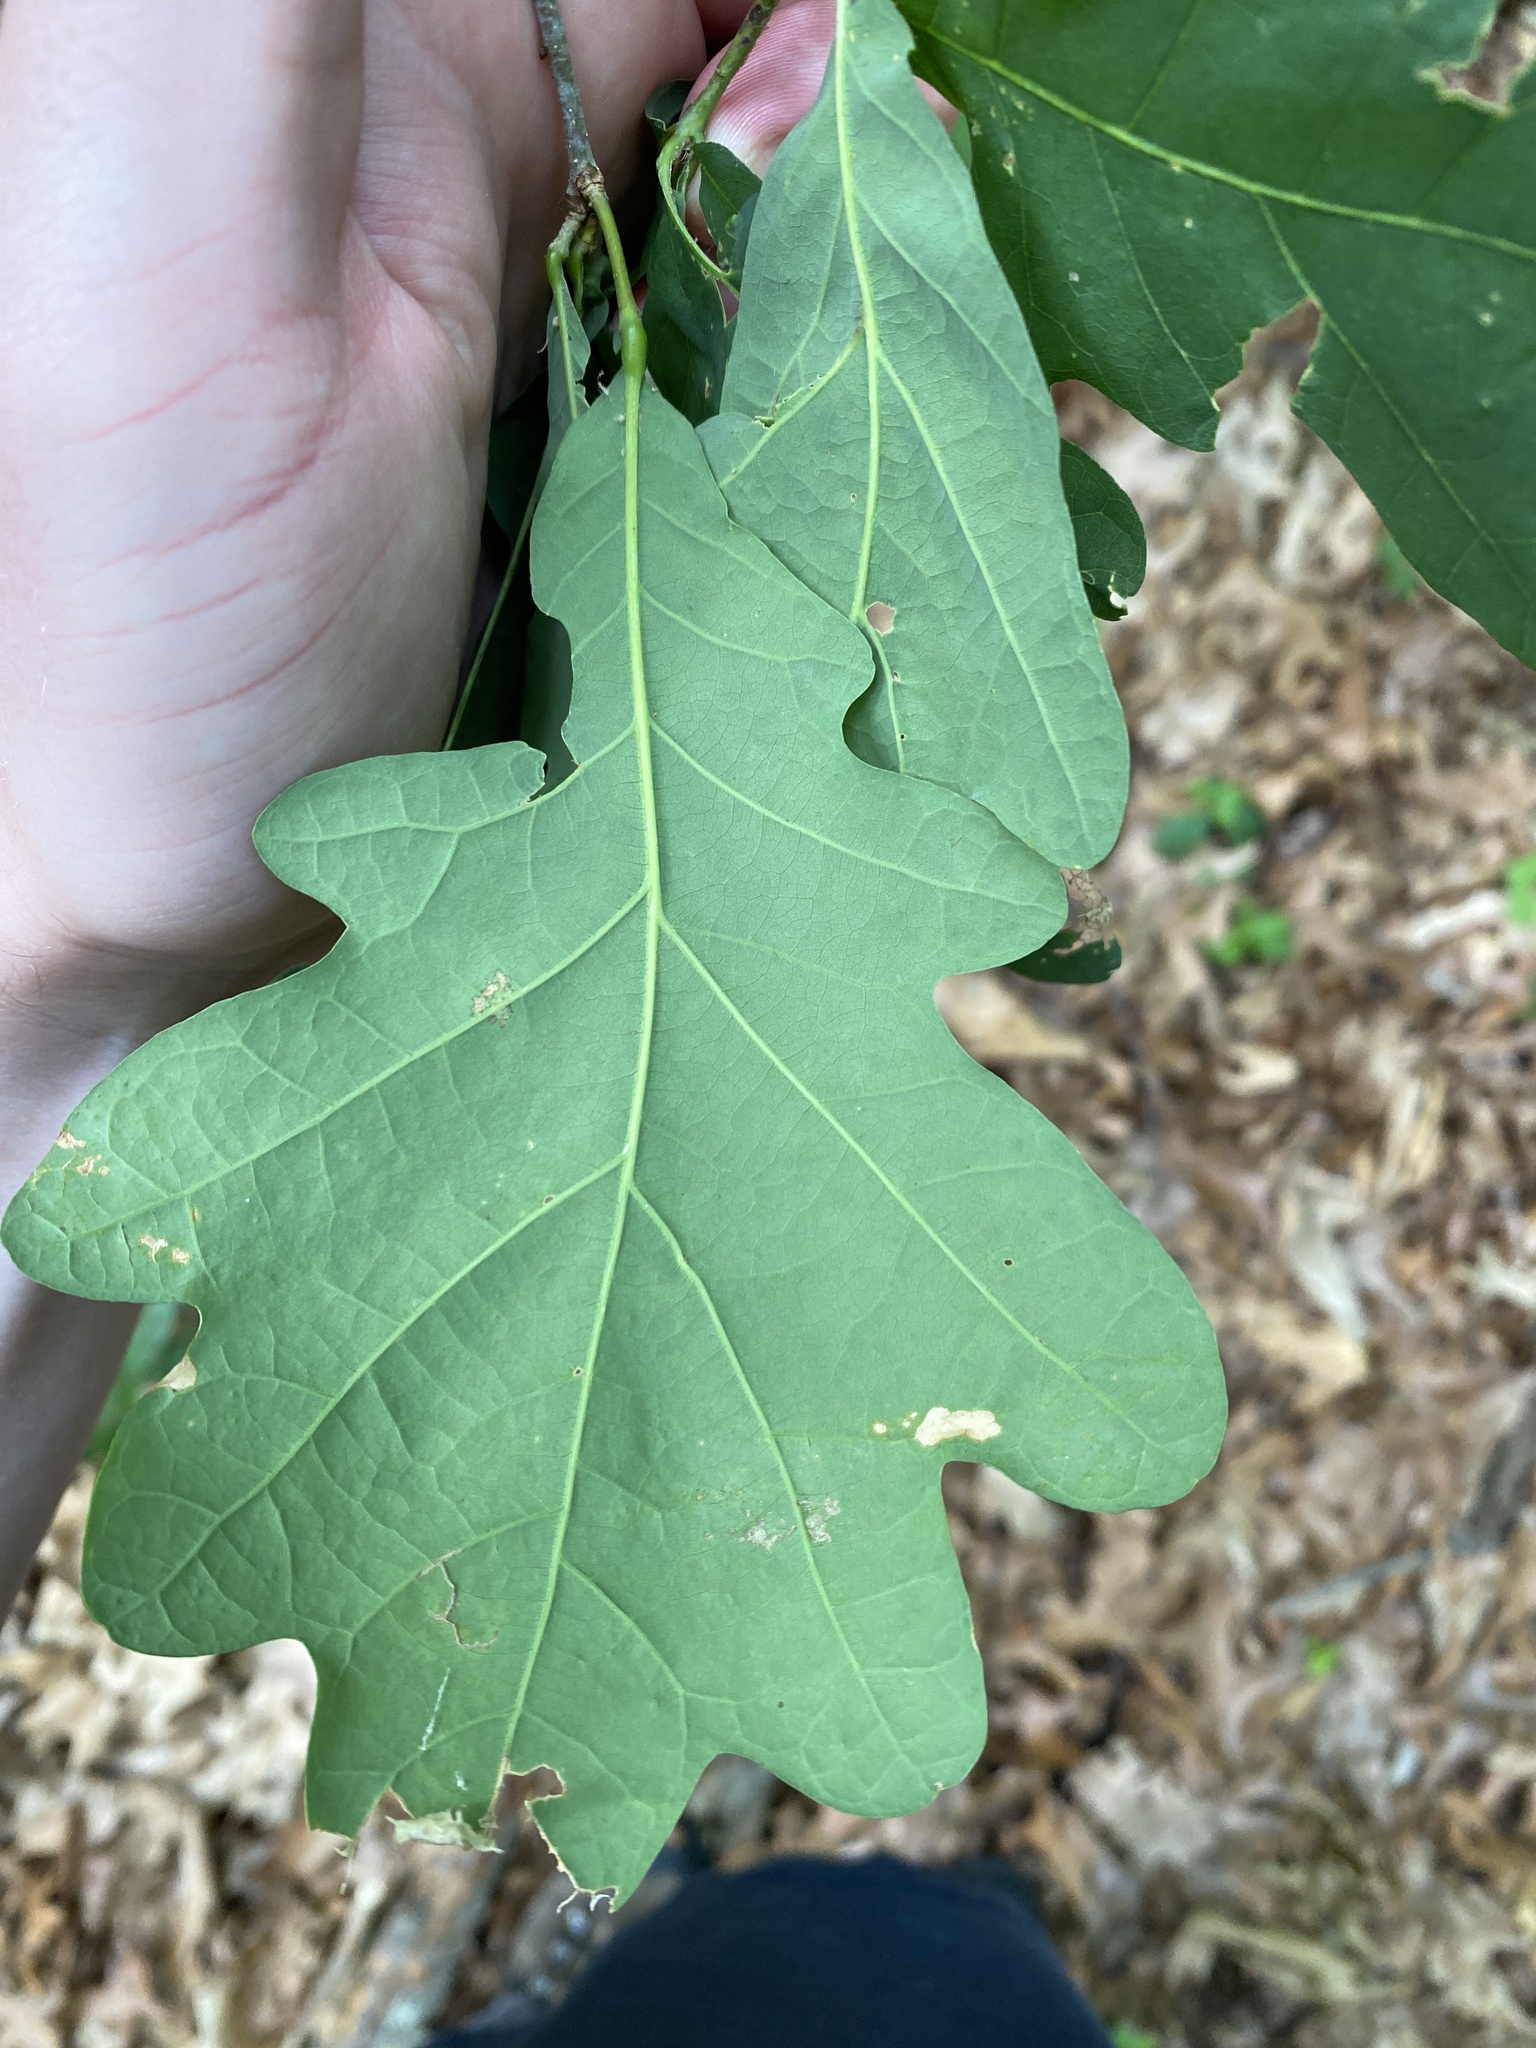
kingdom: Plantae
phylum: Tracheophyta
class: Magnoliopsida
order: Fagales
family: Fagaceae
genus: Quercus
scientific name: Quercus alba
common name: White oak
